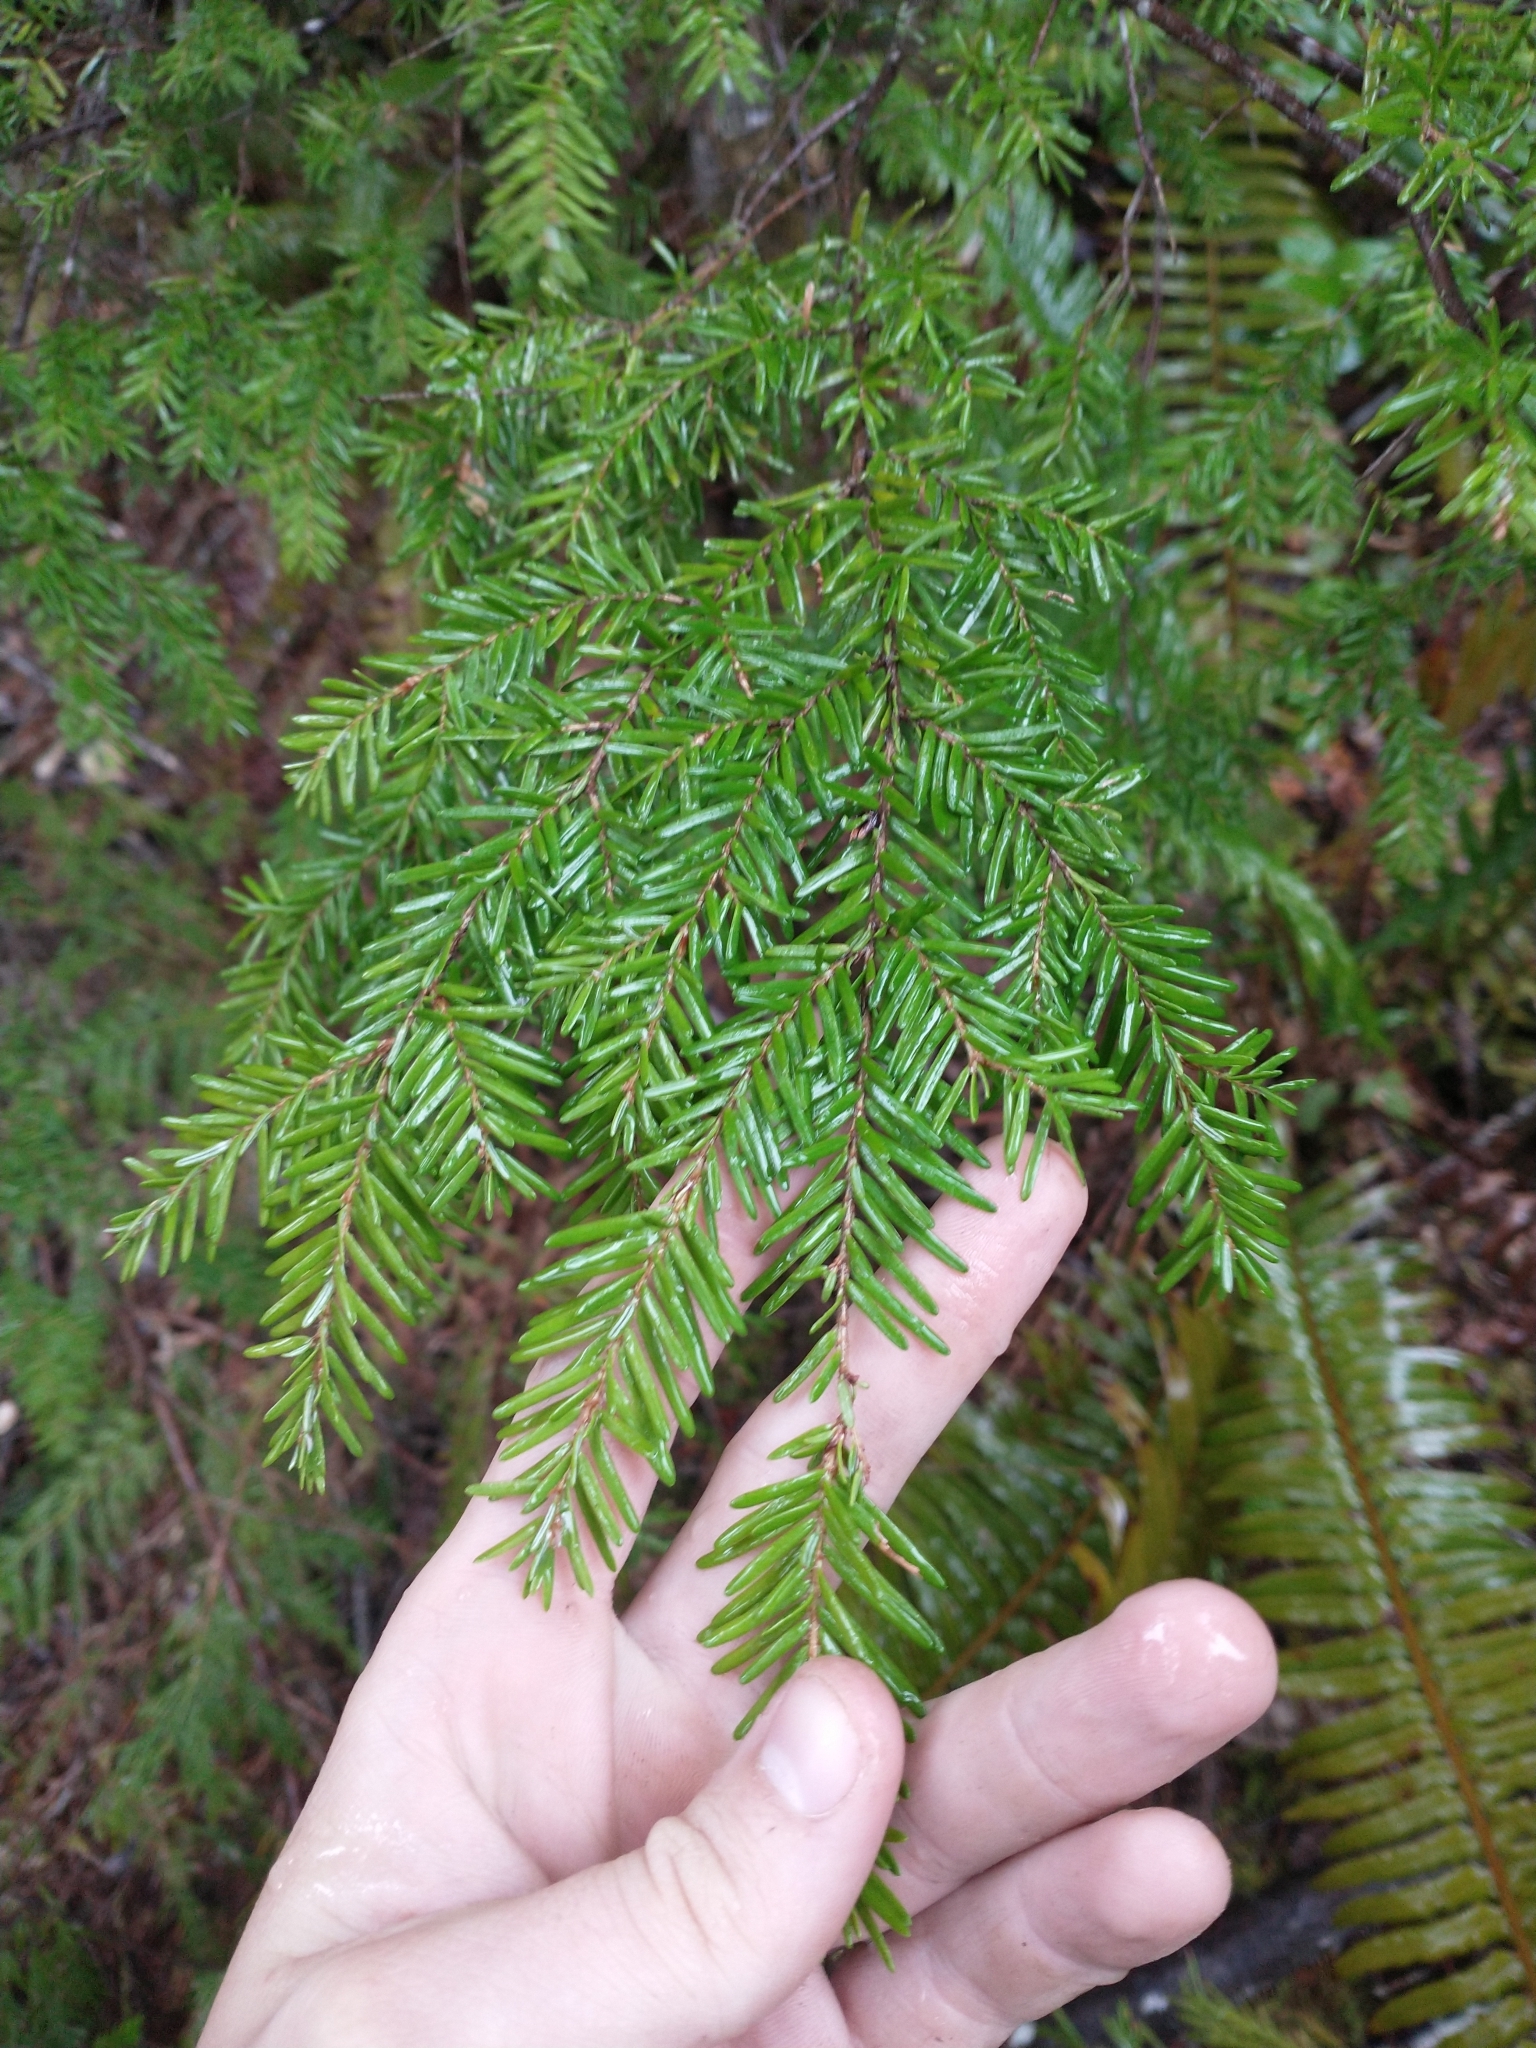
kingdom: Plantae
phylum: Tracheophyta
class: Pinopsida
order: Pinales
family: Pinaceae
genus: Tsuga
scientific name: Tsuga heterophylla
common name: Western hemlock
